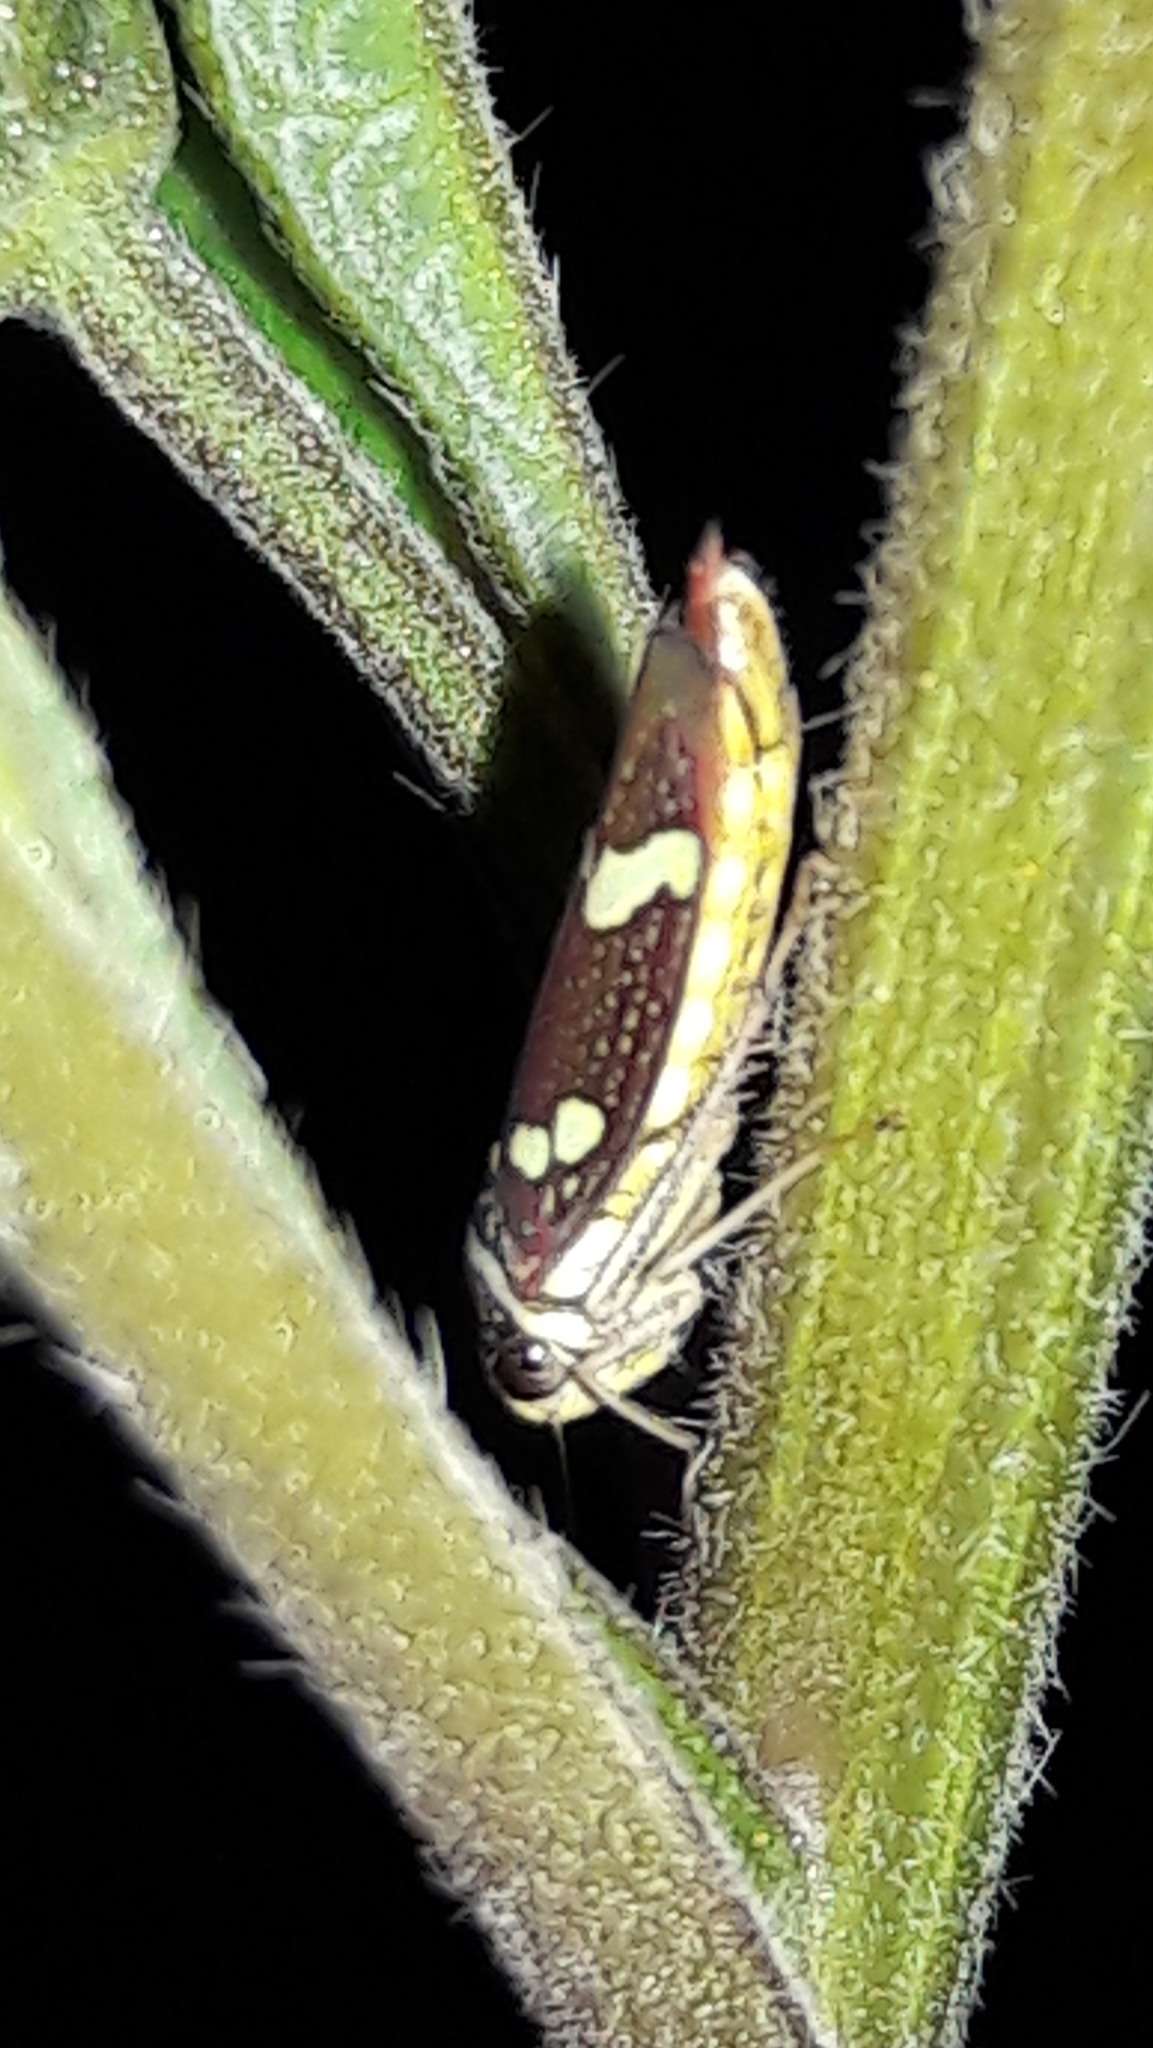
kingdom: Animalia
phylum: Arthropoda
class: Insecta
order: Hemiptera
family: Cicadellidae
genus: Macugonalia
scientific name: Macugonalia leucomelas
